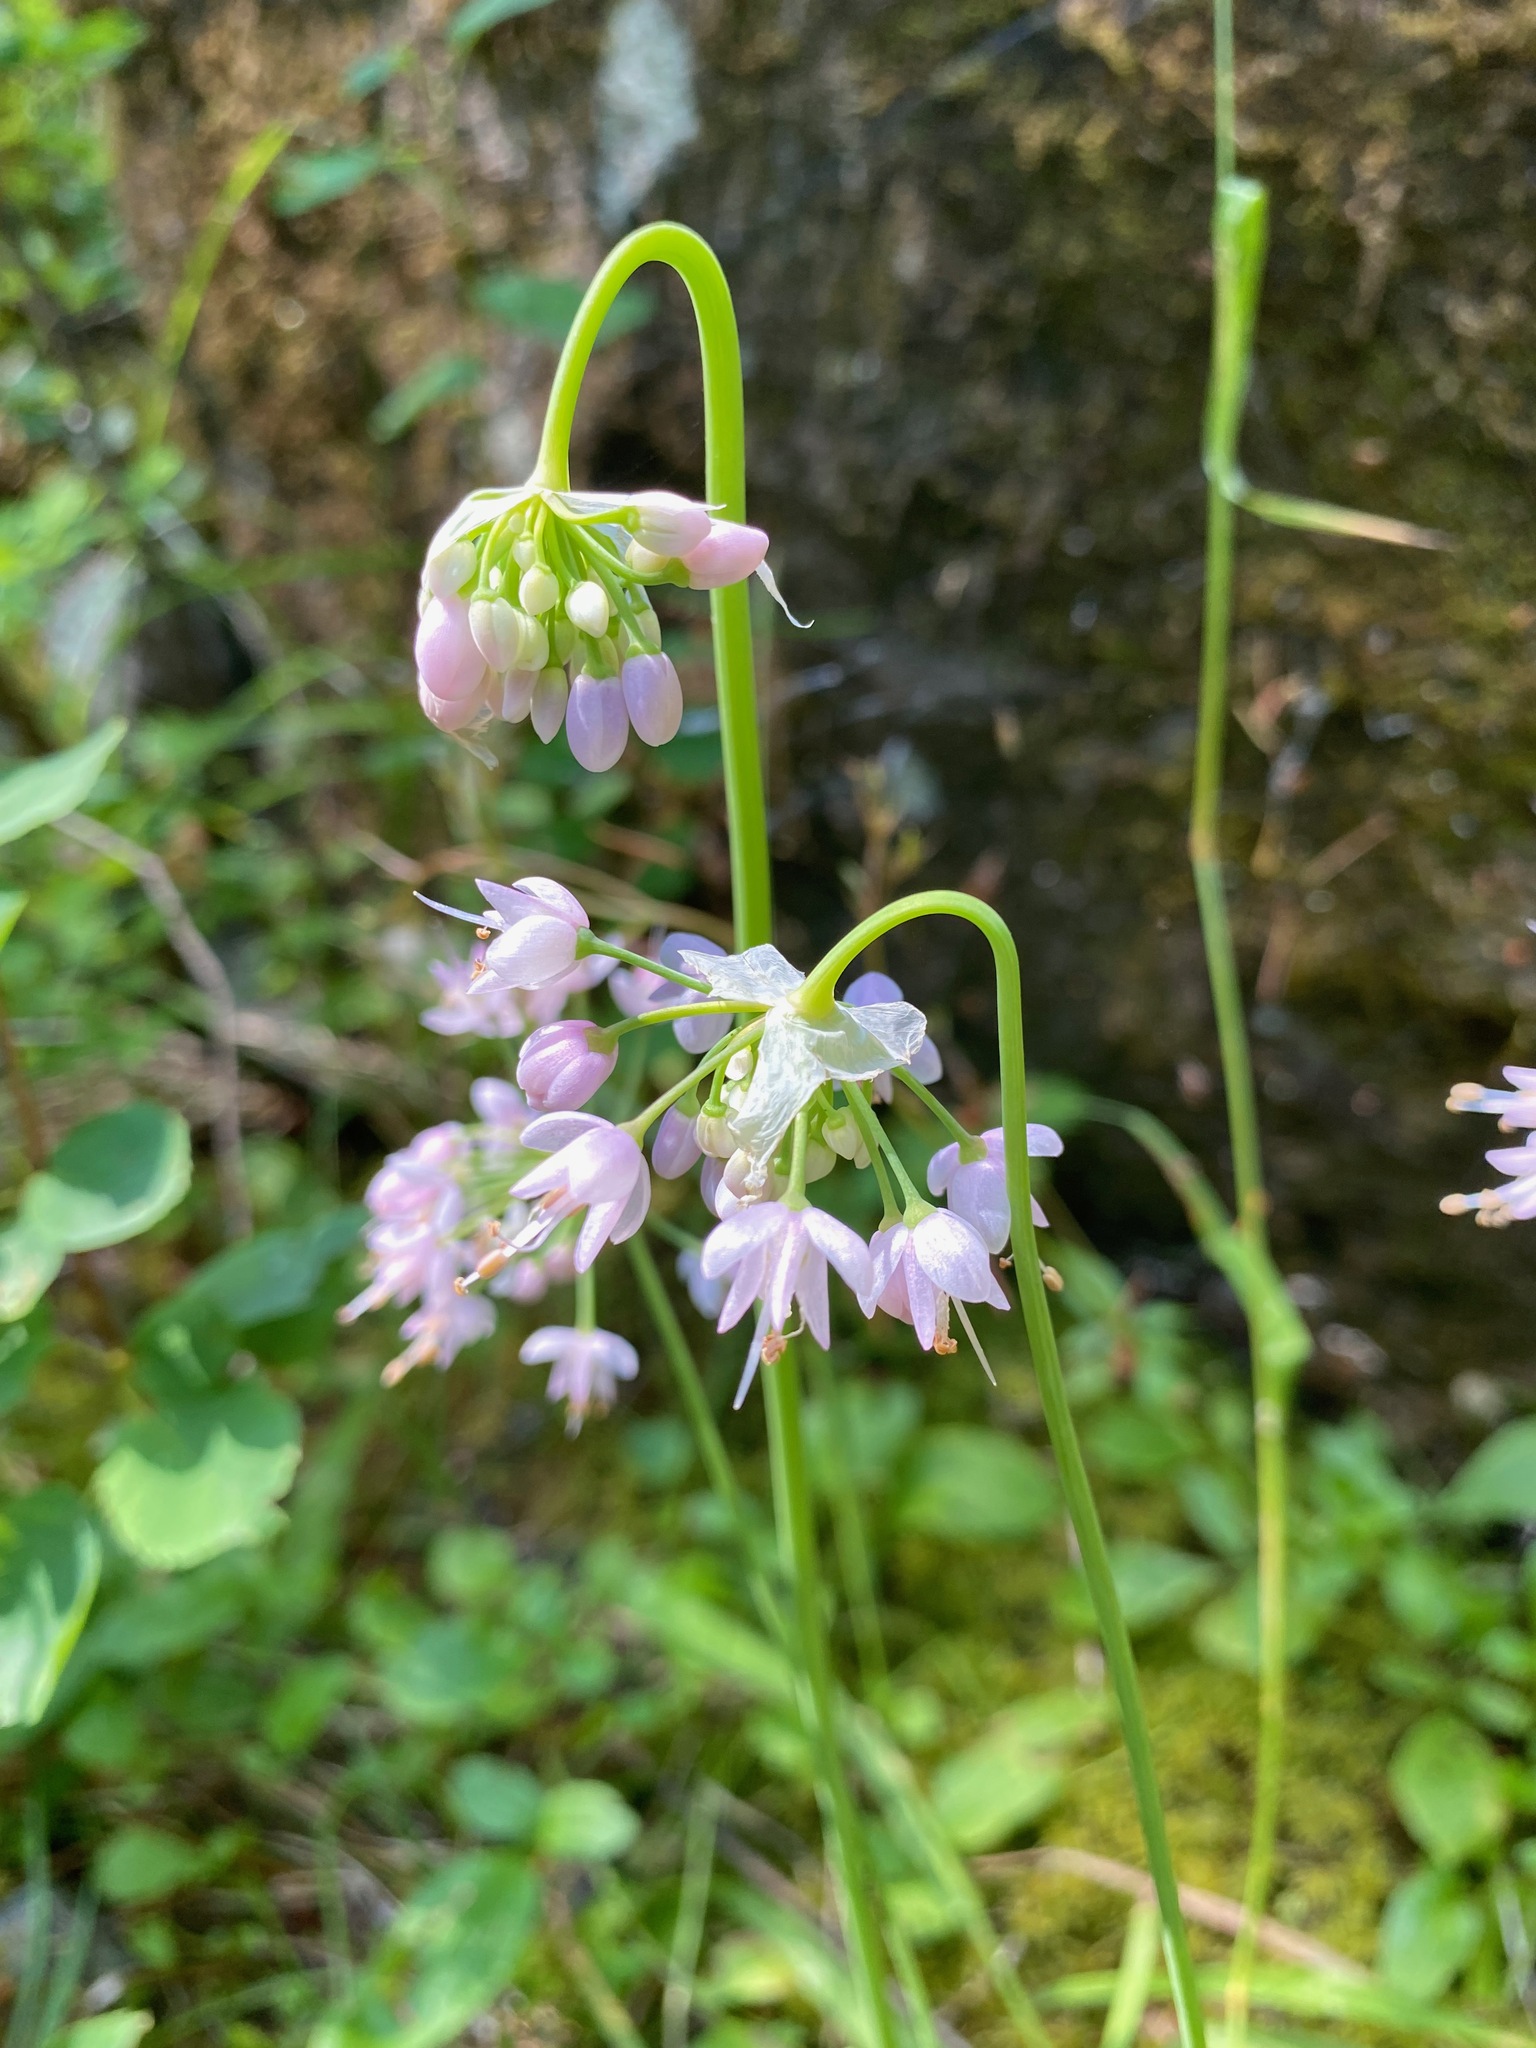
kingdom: Plantae
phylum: Tracheophyta
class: Liliopsida
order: Asparagales
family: Amaryllidaceae
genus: Allium
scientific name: Allium cernuum
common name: Nodding onion
